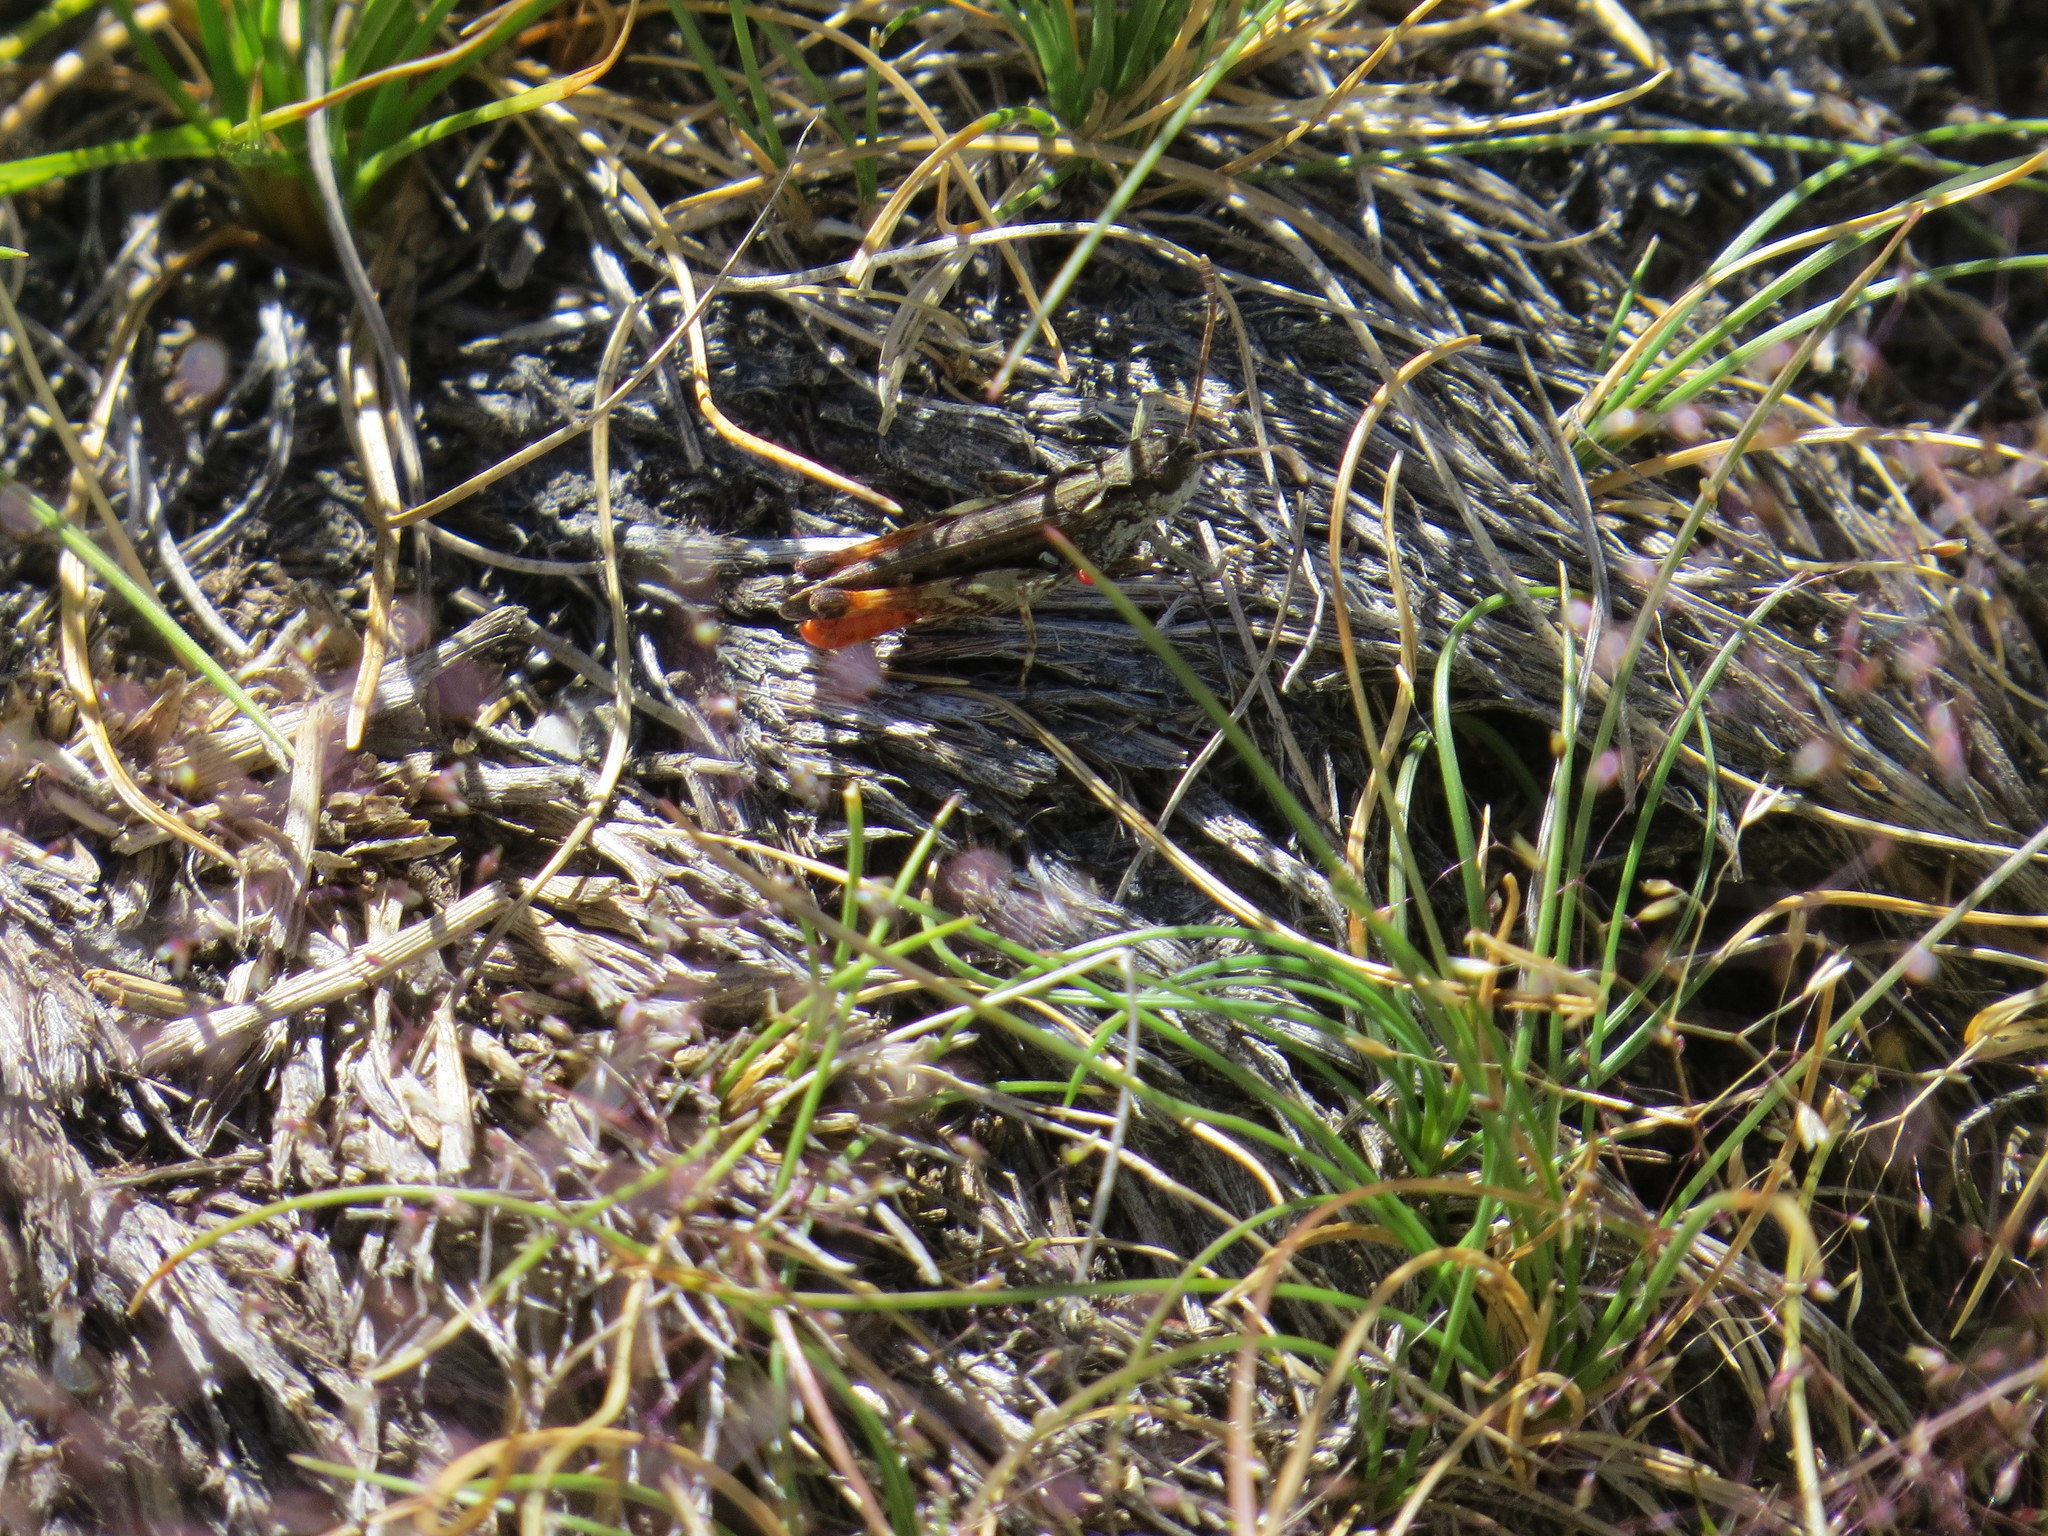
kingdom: Animalia
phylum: Arthropoda
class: Insecta
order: Orthoptera
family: Acrididae
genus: Myrmeleotettix
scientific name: Myrmeleotettix maculatus
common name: Mottled grasshopper
